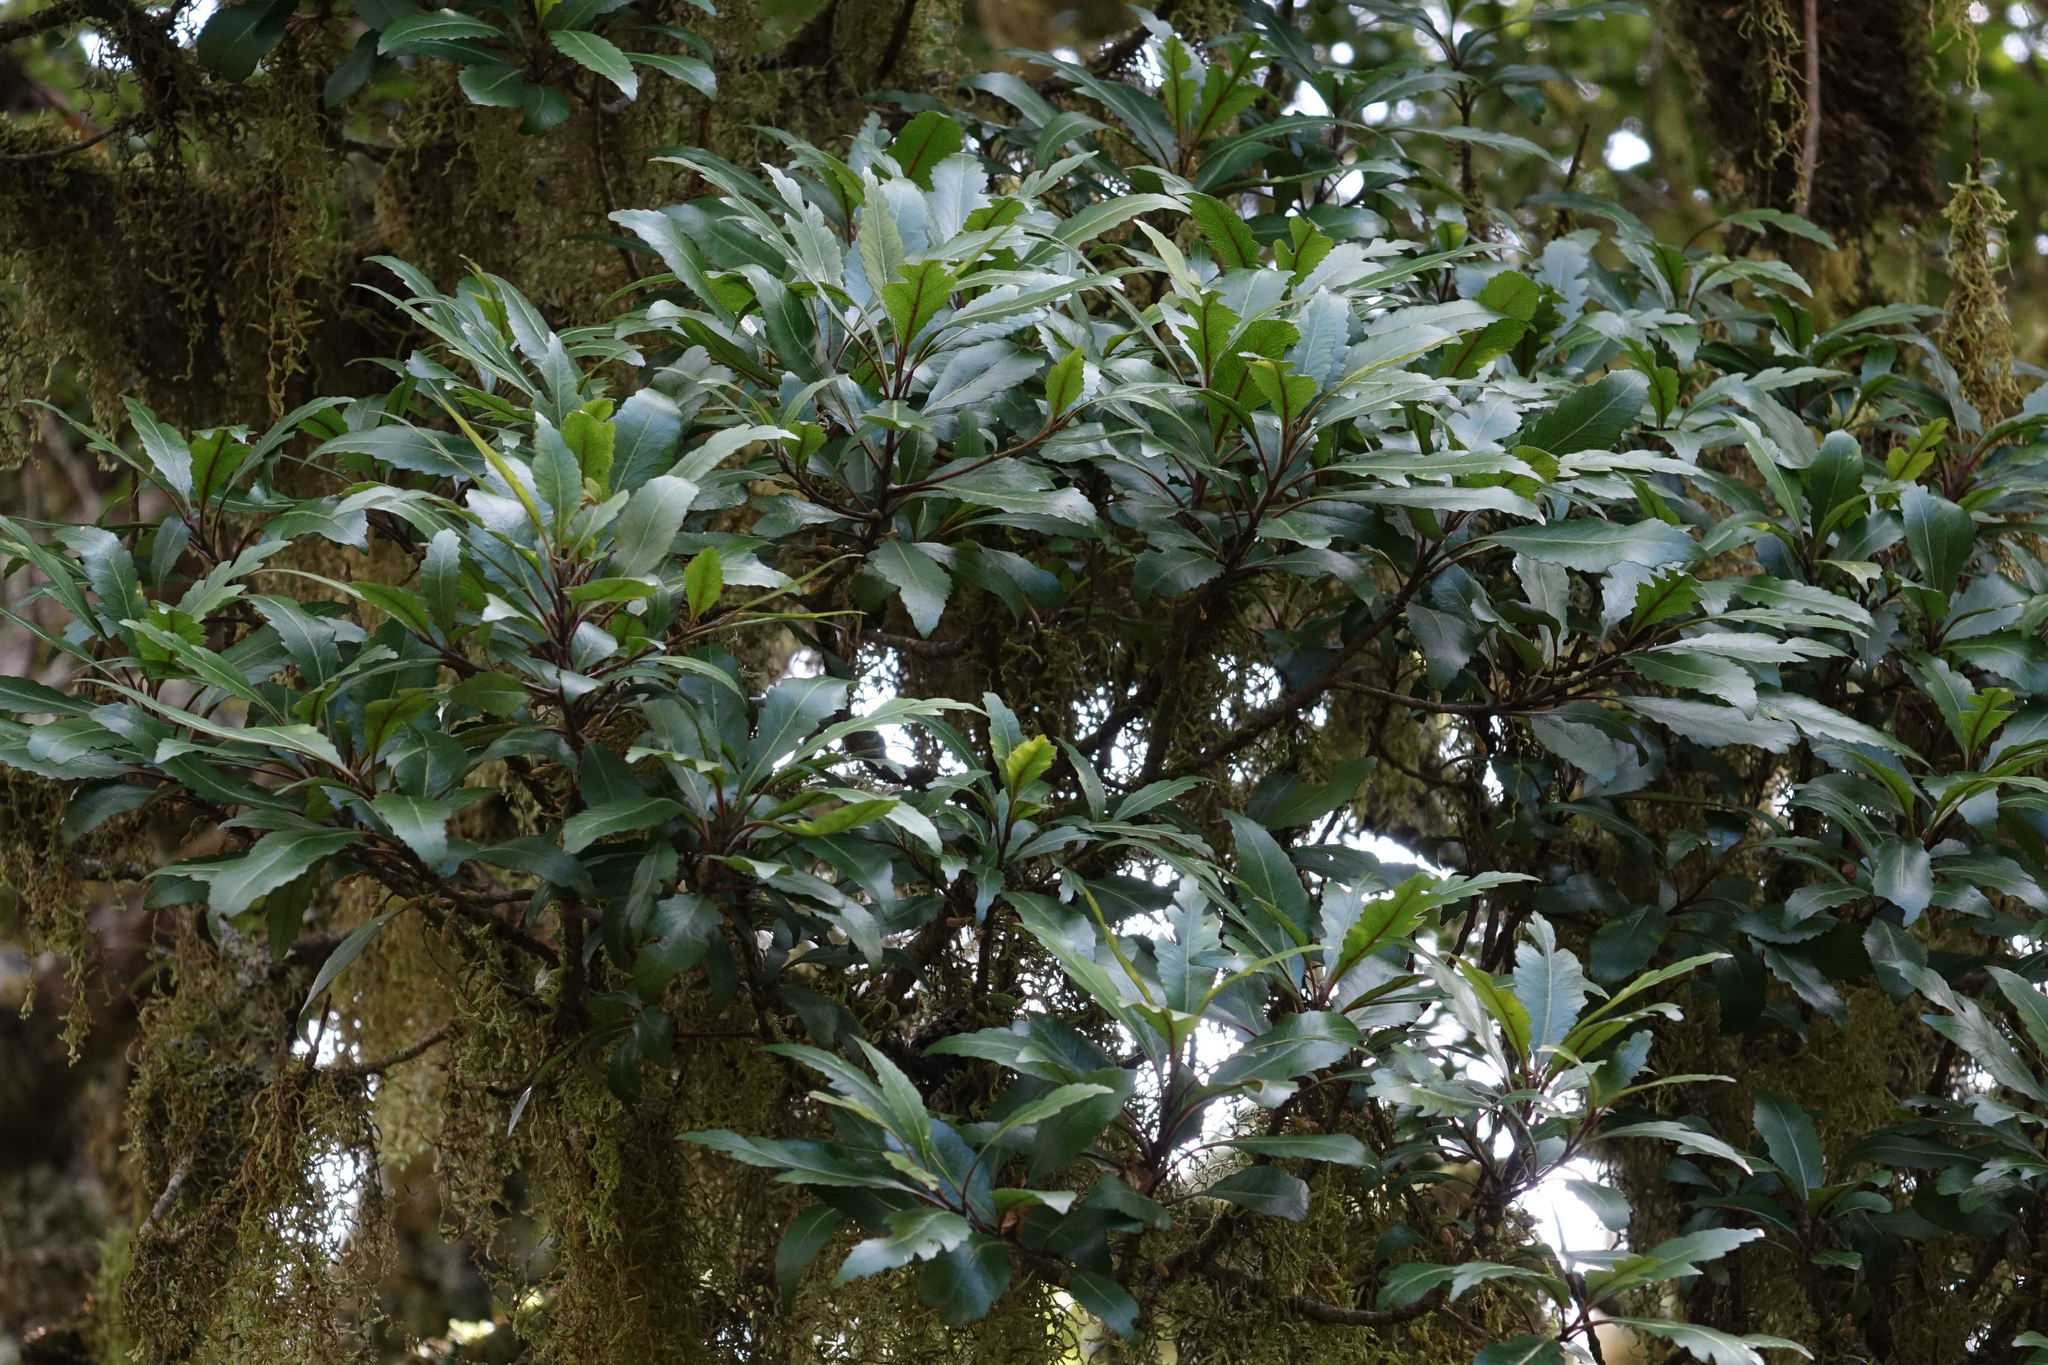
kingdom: Plantae
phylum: Tracheophyta
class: Magnoliopsida
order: Oxalidales
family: Elaeocarpaceae
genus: Elaeocarpus
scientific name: Elaeocarpus hookerianus
